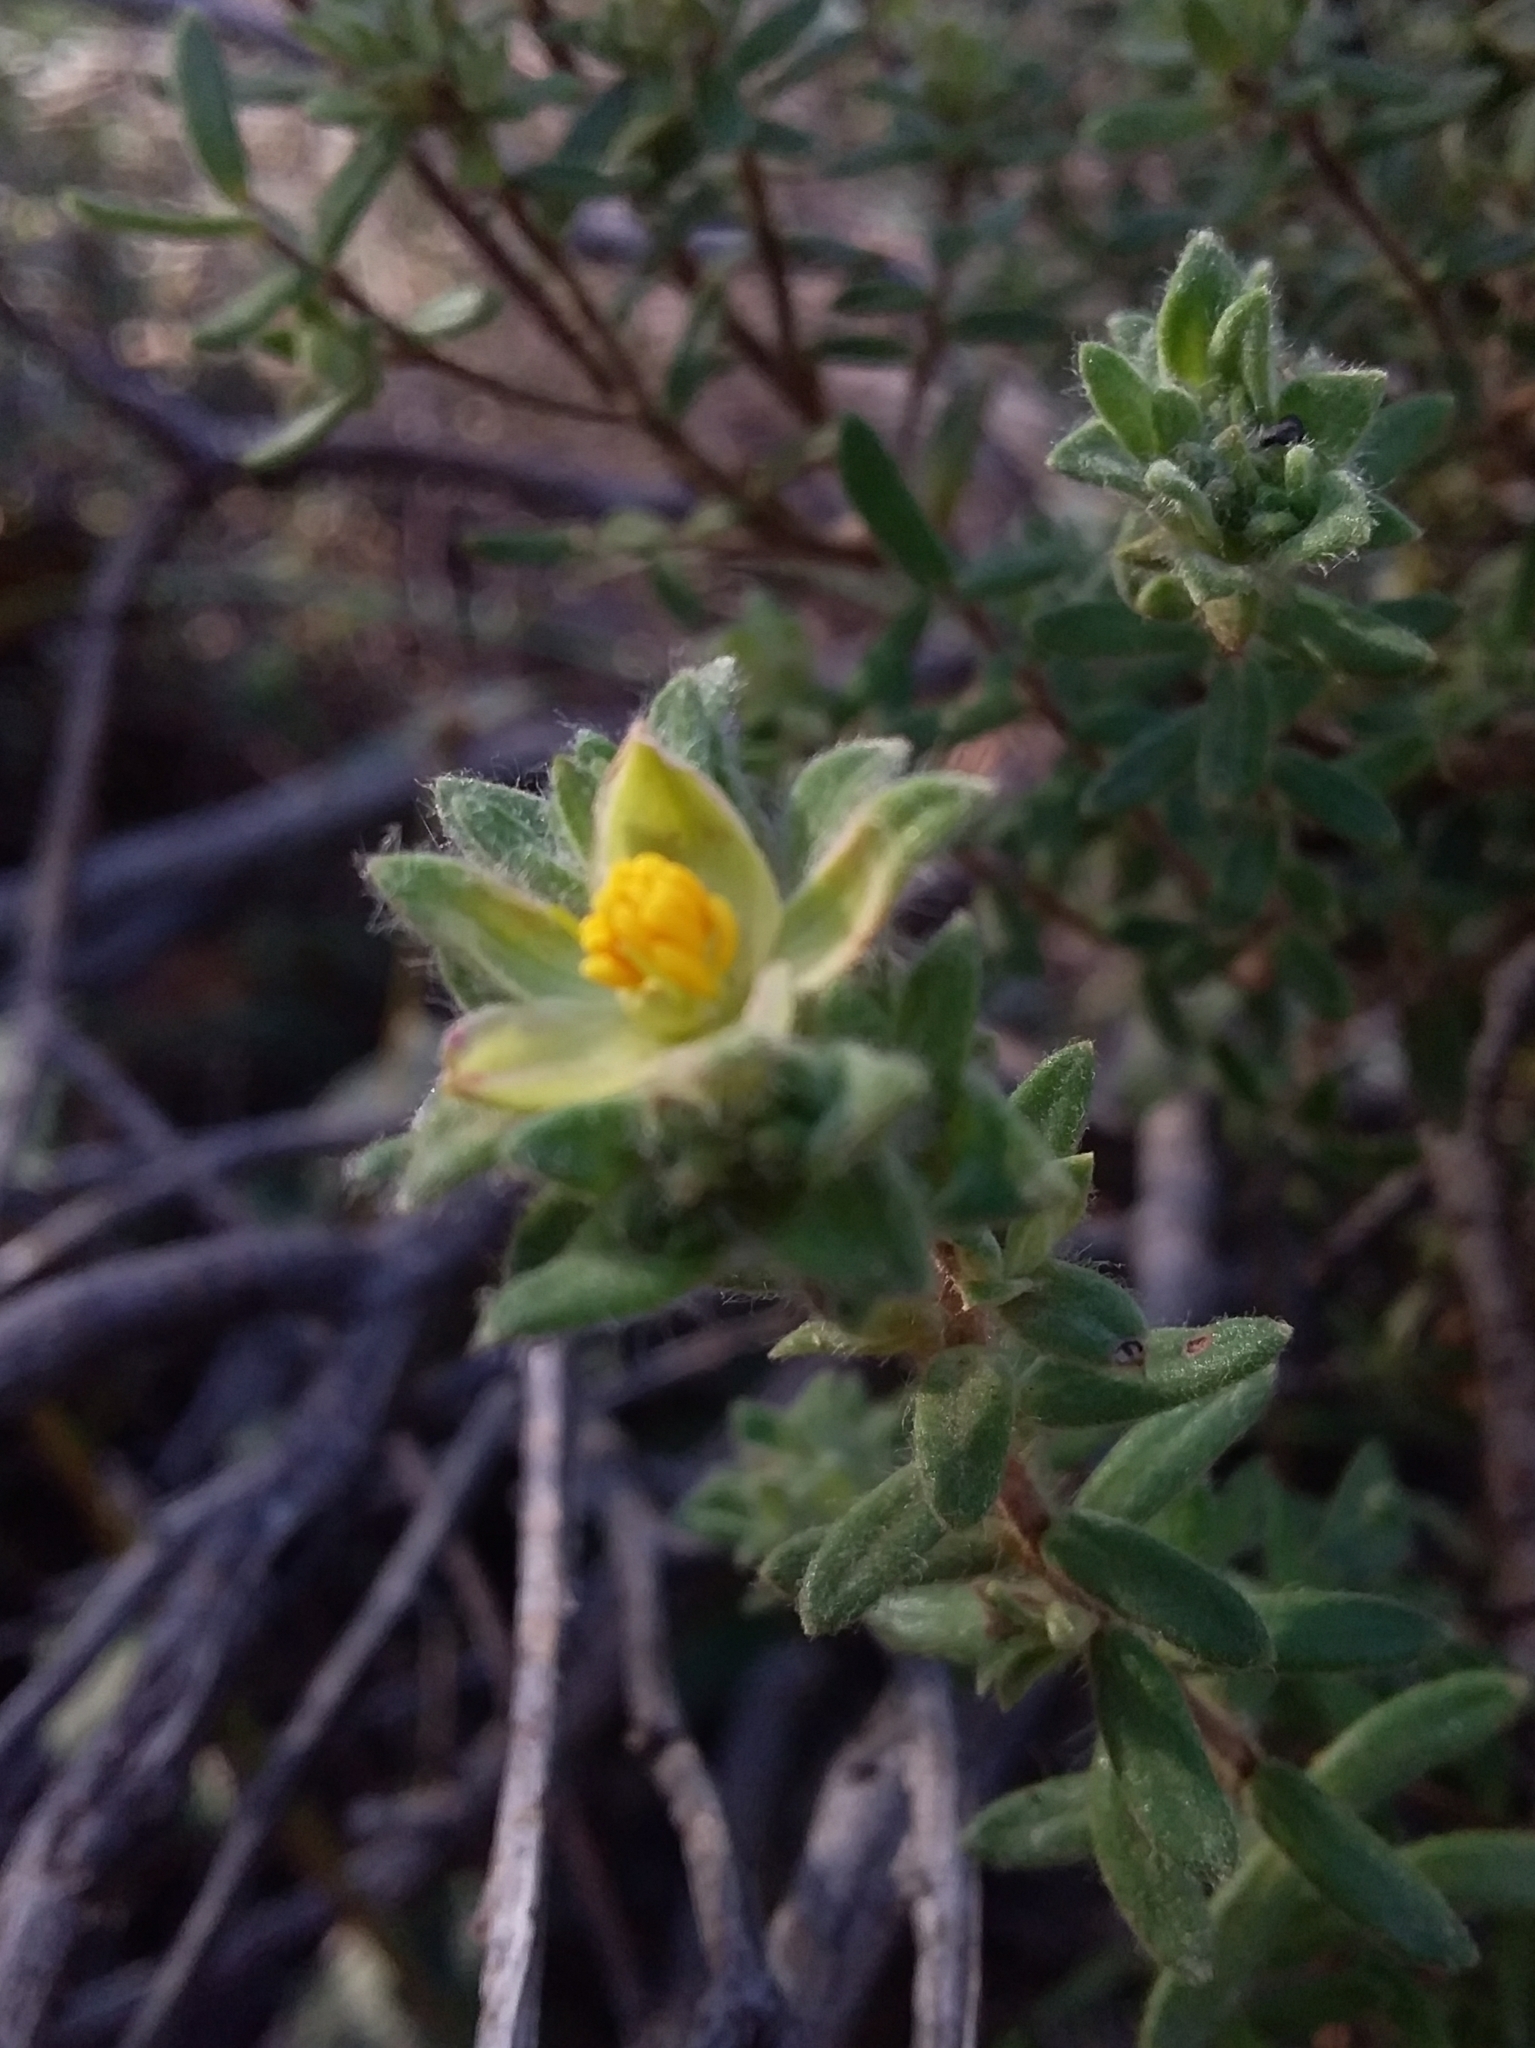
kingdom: Plantae
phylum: Tracheophyta
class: Magnoliopsida
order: Dilleniales
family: Dilleniaceae
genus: Hibbertia
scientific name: Hibbertia crinita
